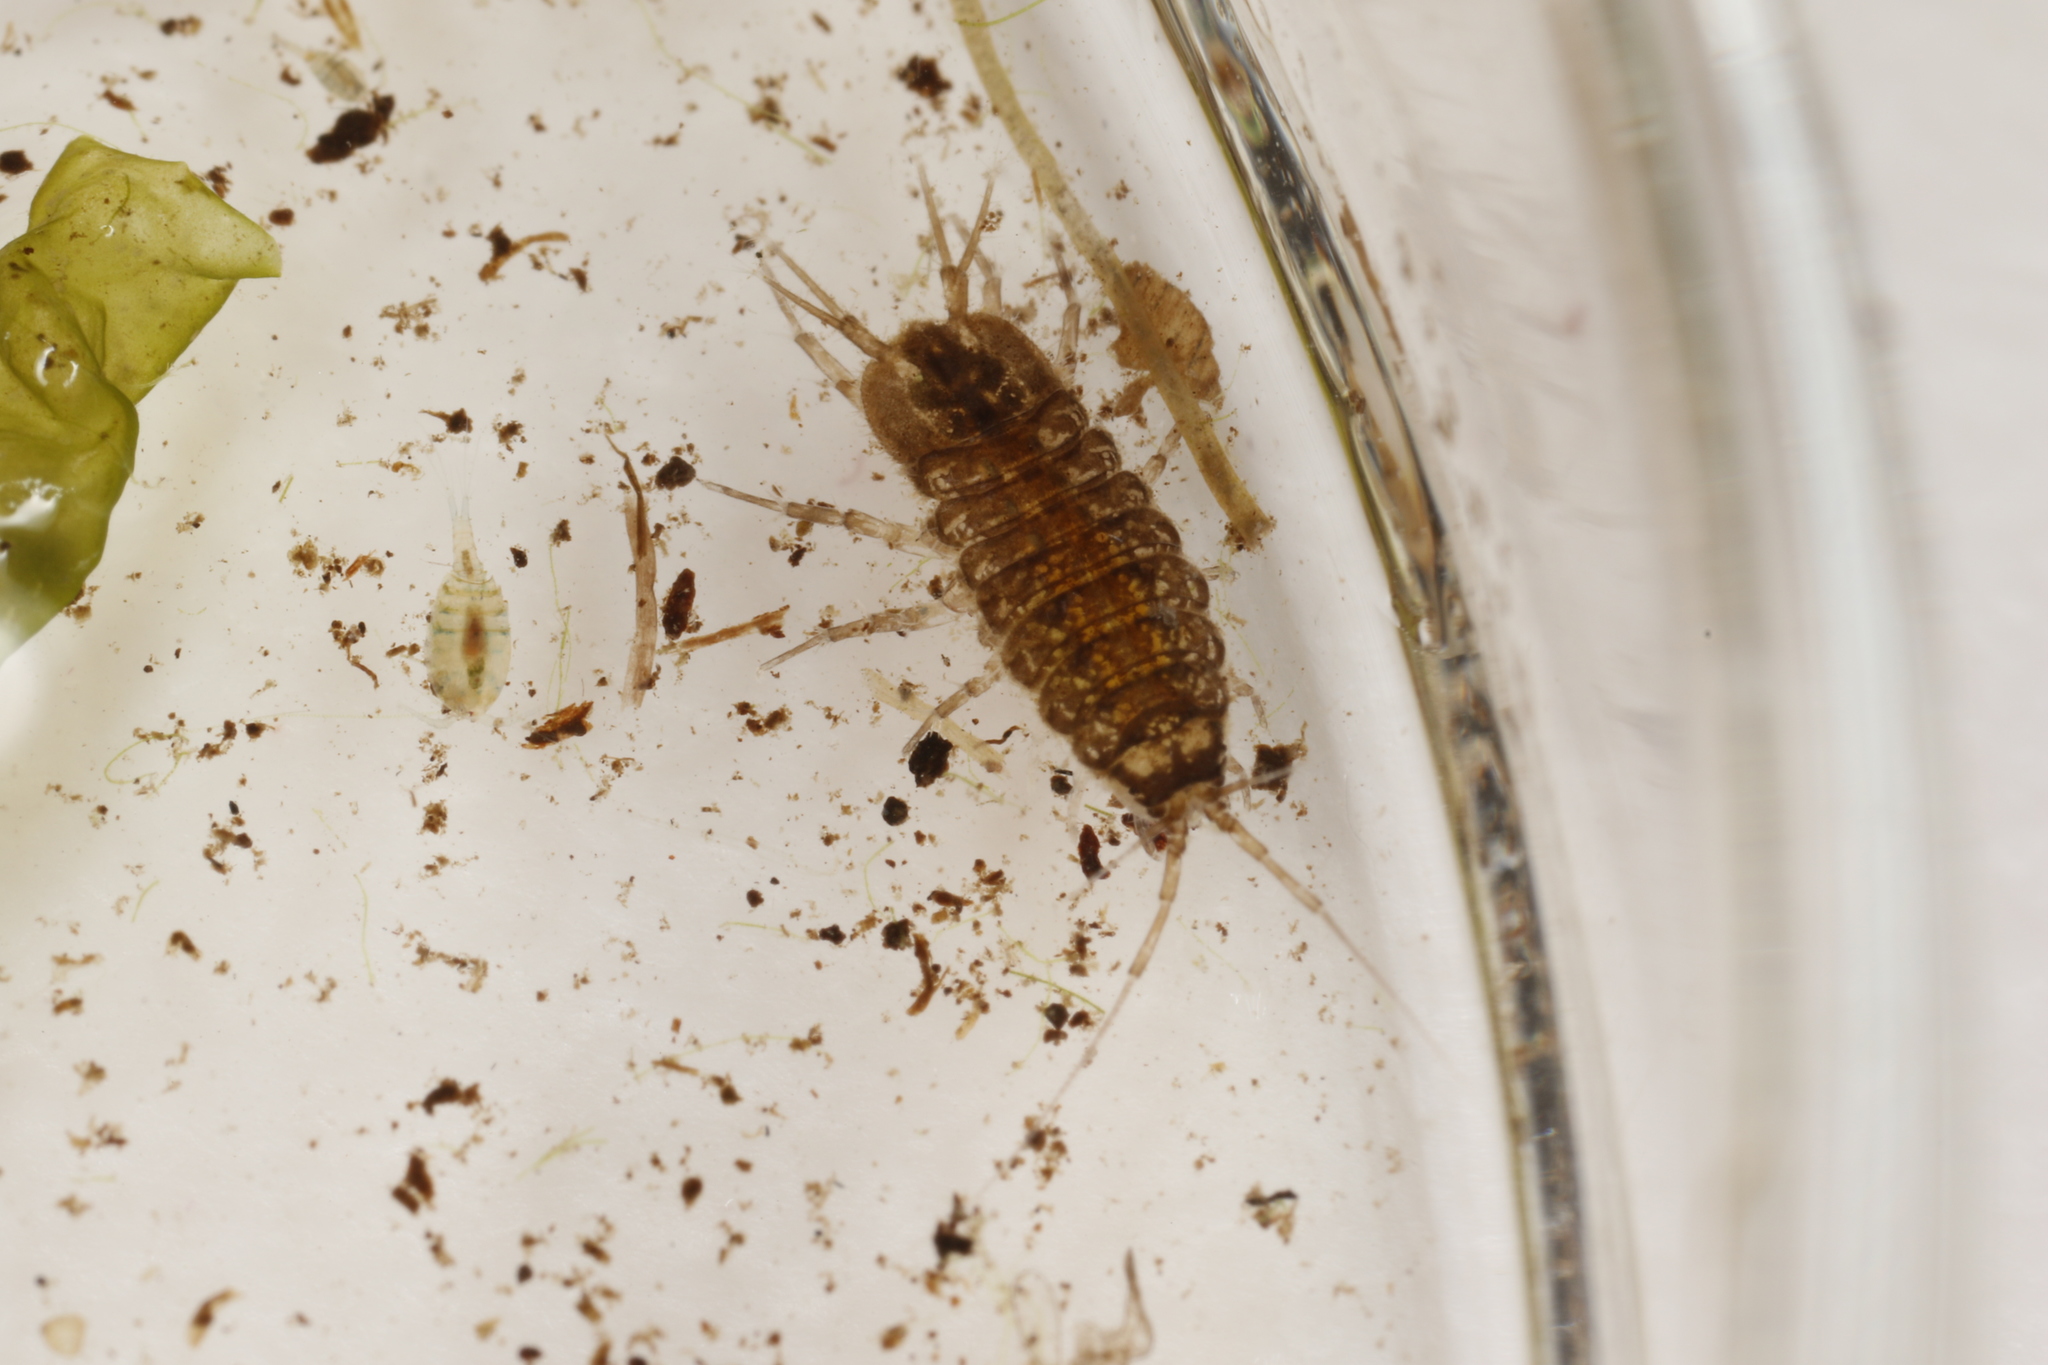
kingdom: Animalia
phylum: Arthropoda
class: Malacostraca
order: Isopoda
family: Asellidae
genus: Asellus
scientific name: Asellus aquaticus
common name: Water hog lice/slaters
